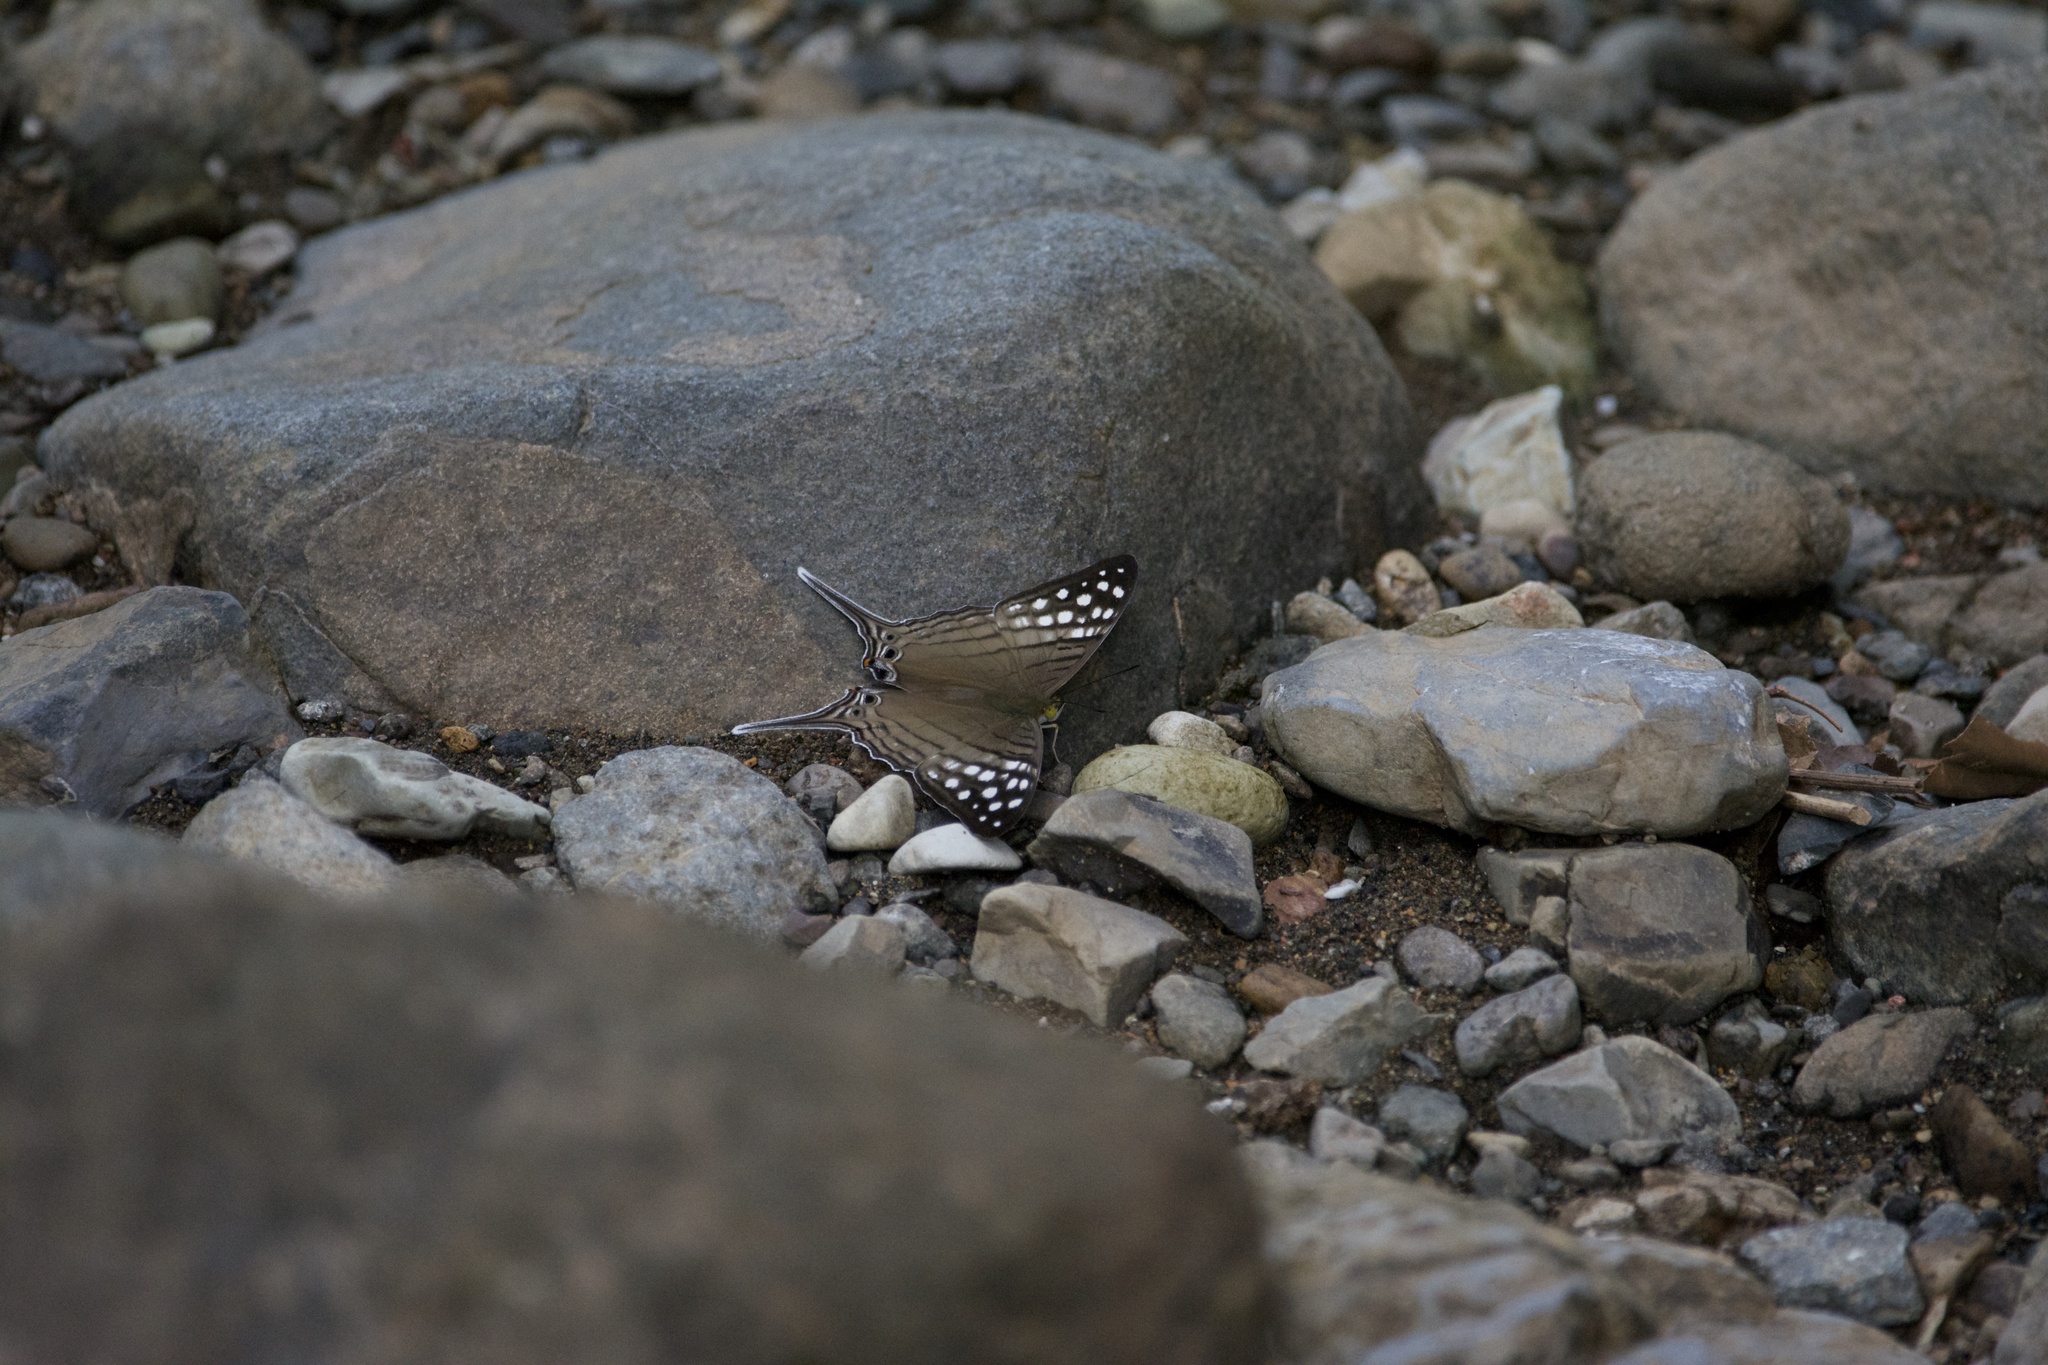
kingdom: Animalia
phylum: Arthropoda
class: Insecta
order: Lepidoptera
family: Nymphalidae
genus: Marpesia
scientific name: Marpesia merops
